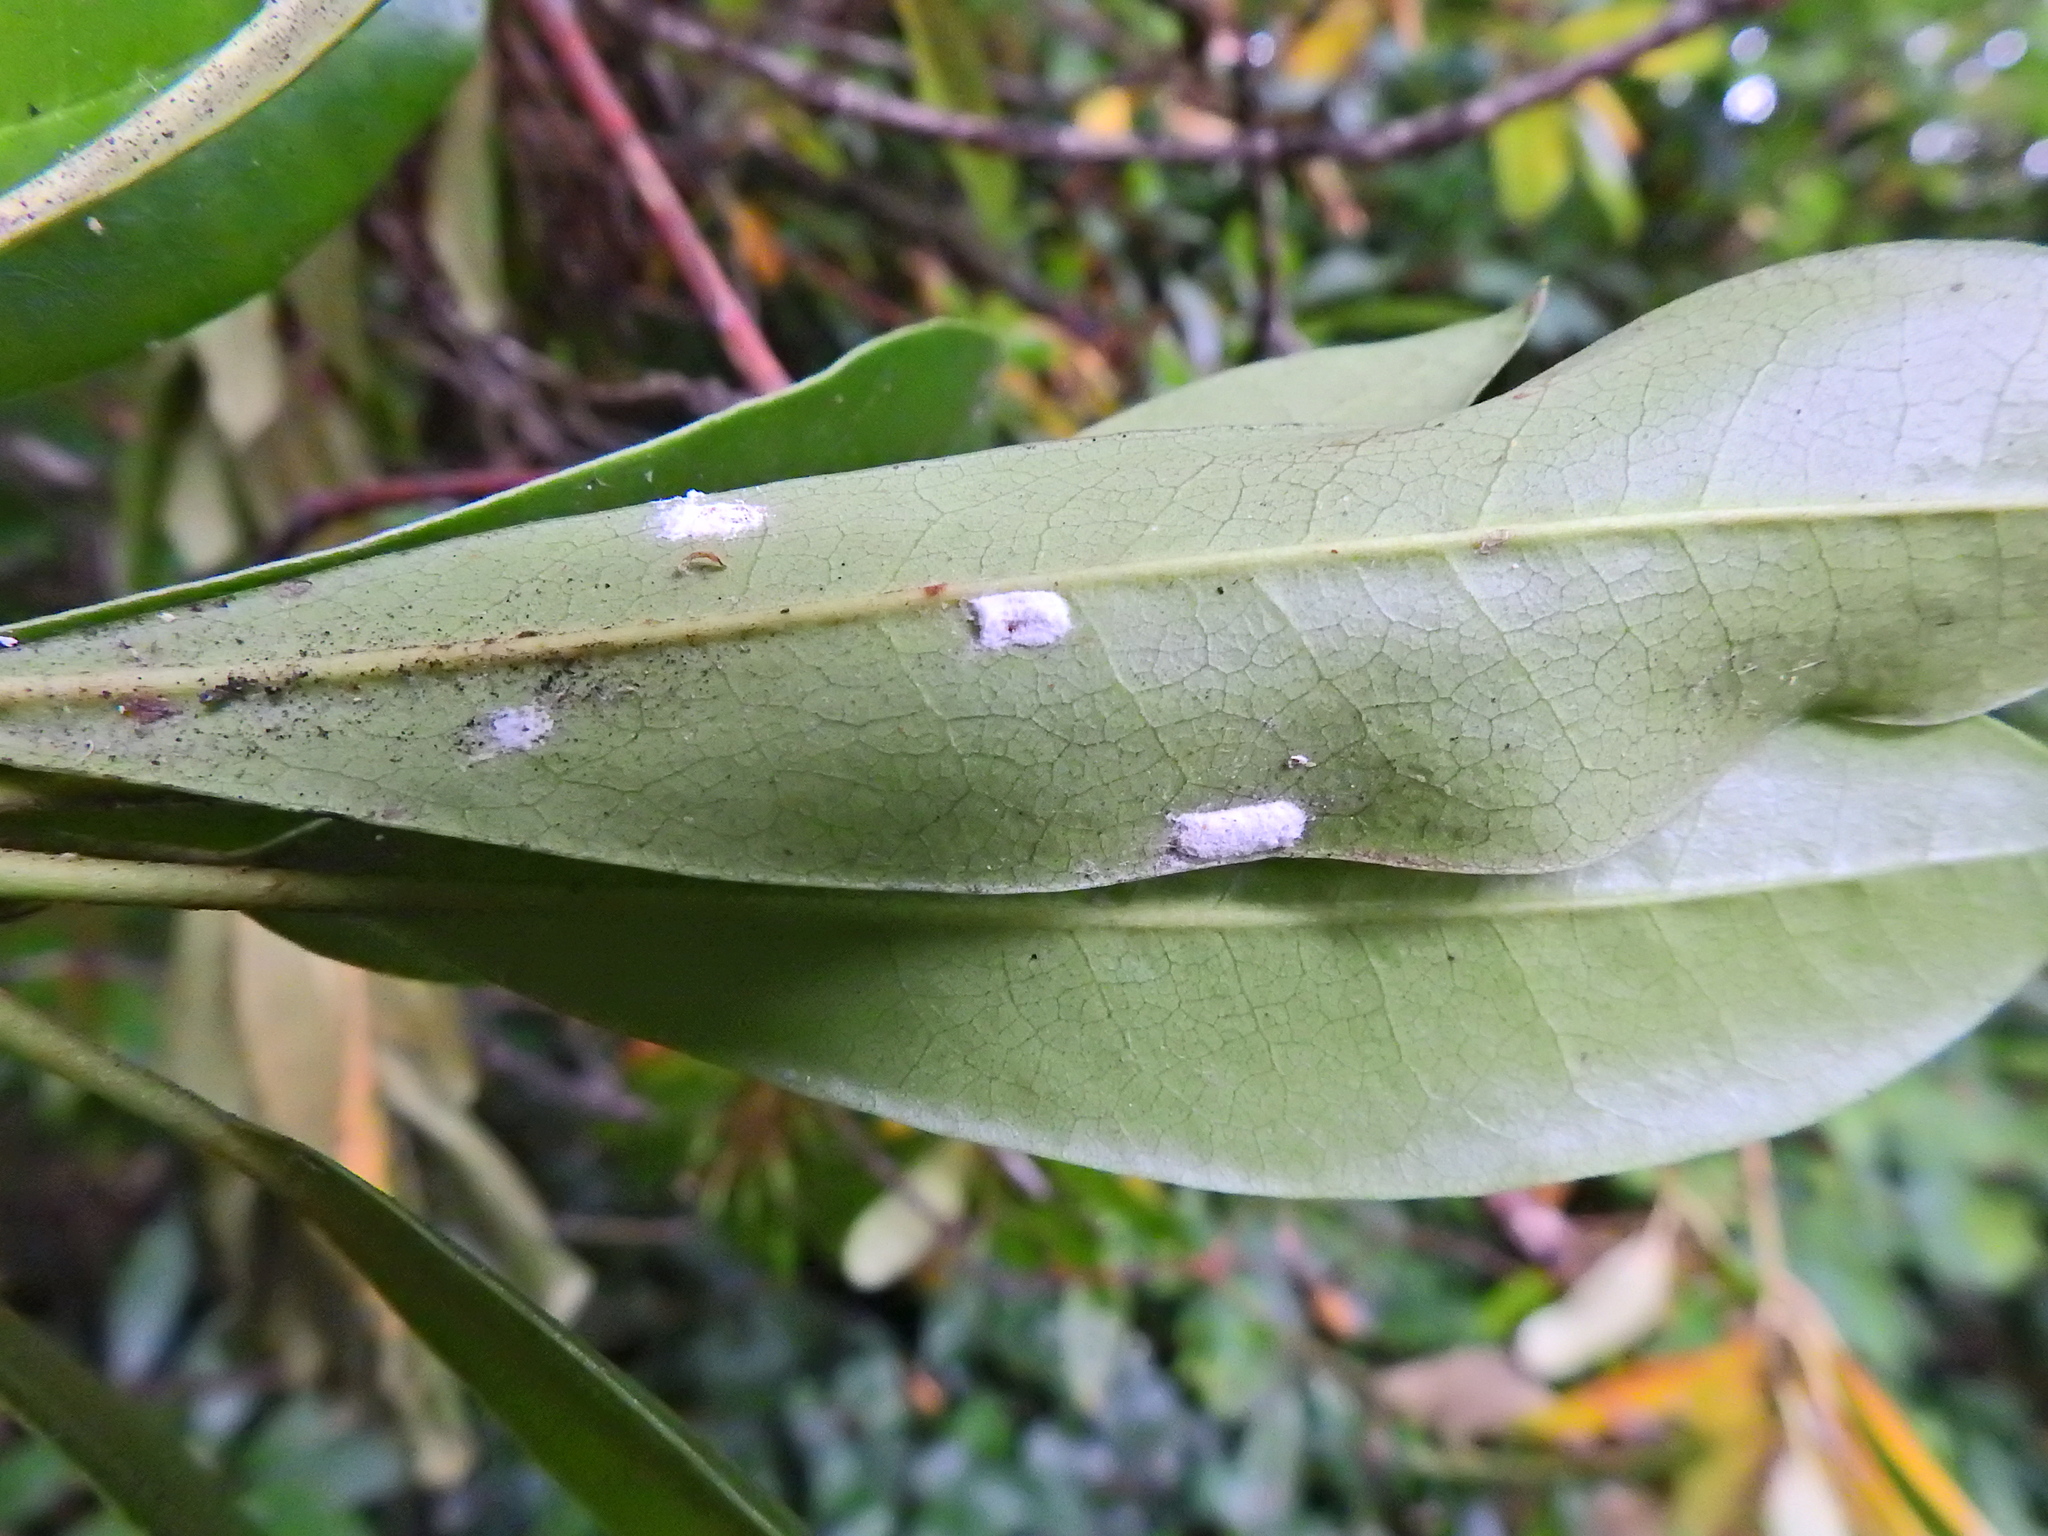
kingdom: Animalia
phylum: Arthropoda
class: Insecta
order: Hemiptera
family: Coccidae
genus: Pulvinaria
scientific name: Pulvinaria floccifera
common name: Cottony camellia scale
